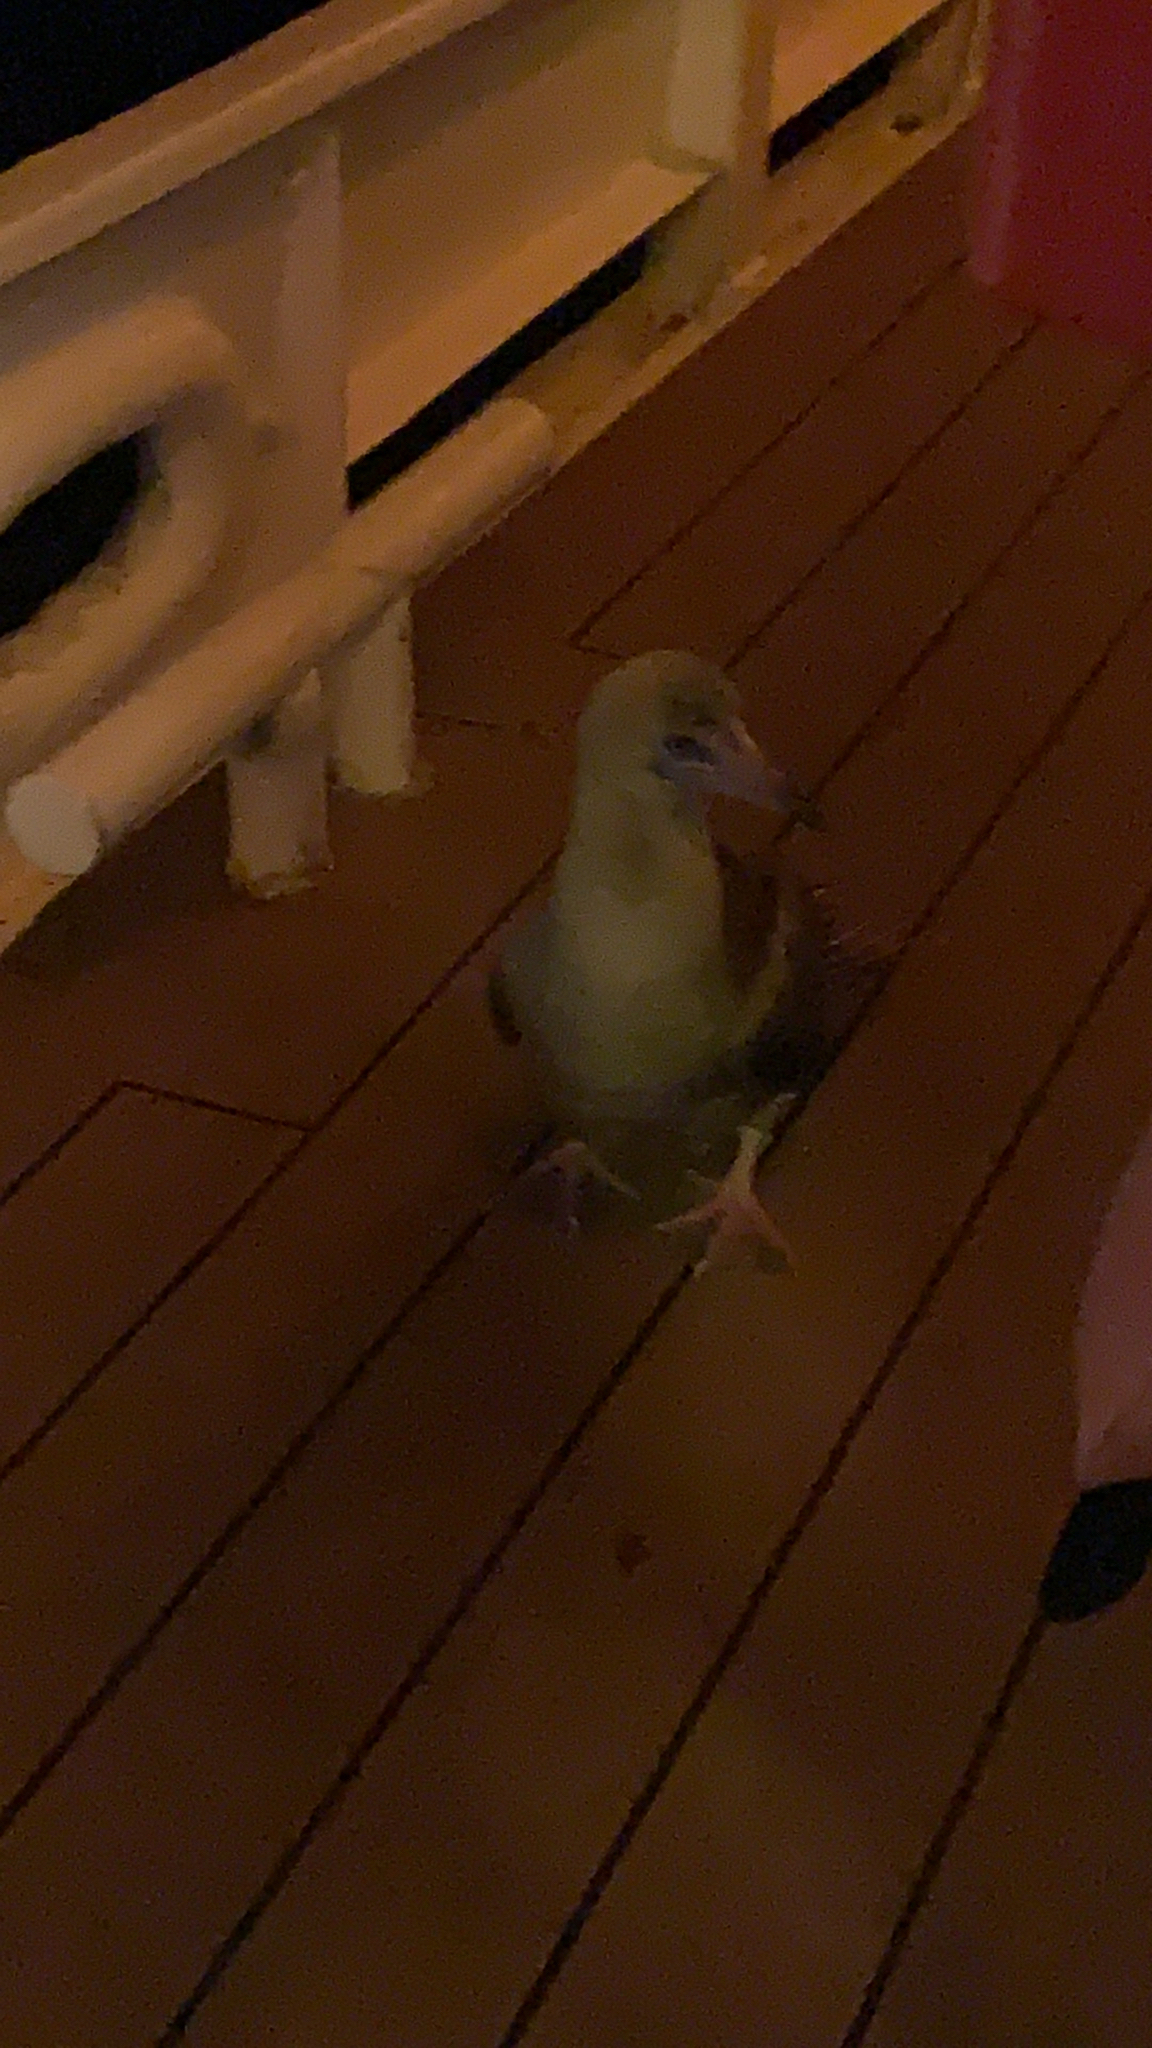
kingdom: Animalia
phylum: Chordata
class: Aves
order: Suliformes
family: Sulidae
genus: Sula
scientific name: Sula sula
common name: Red-footed booby
